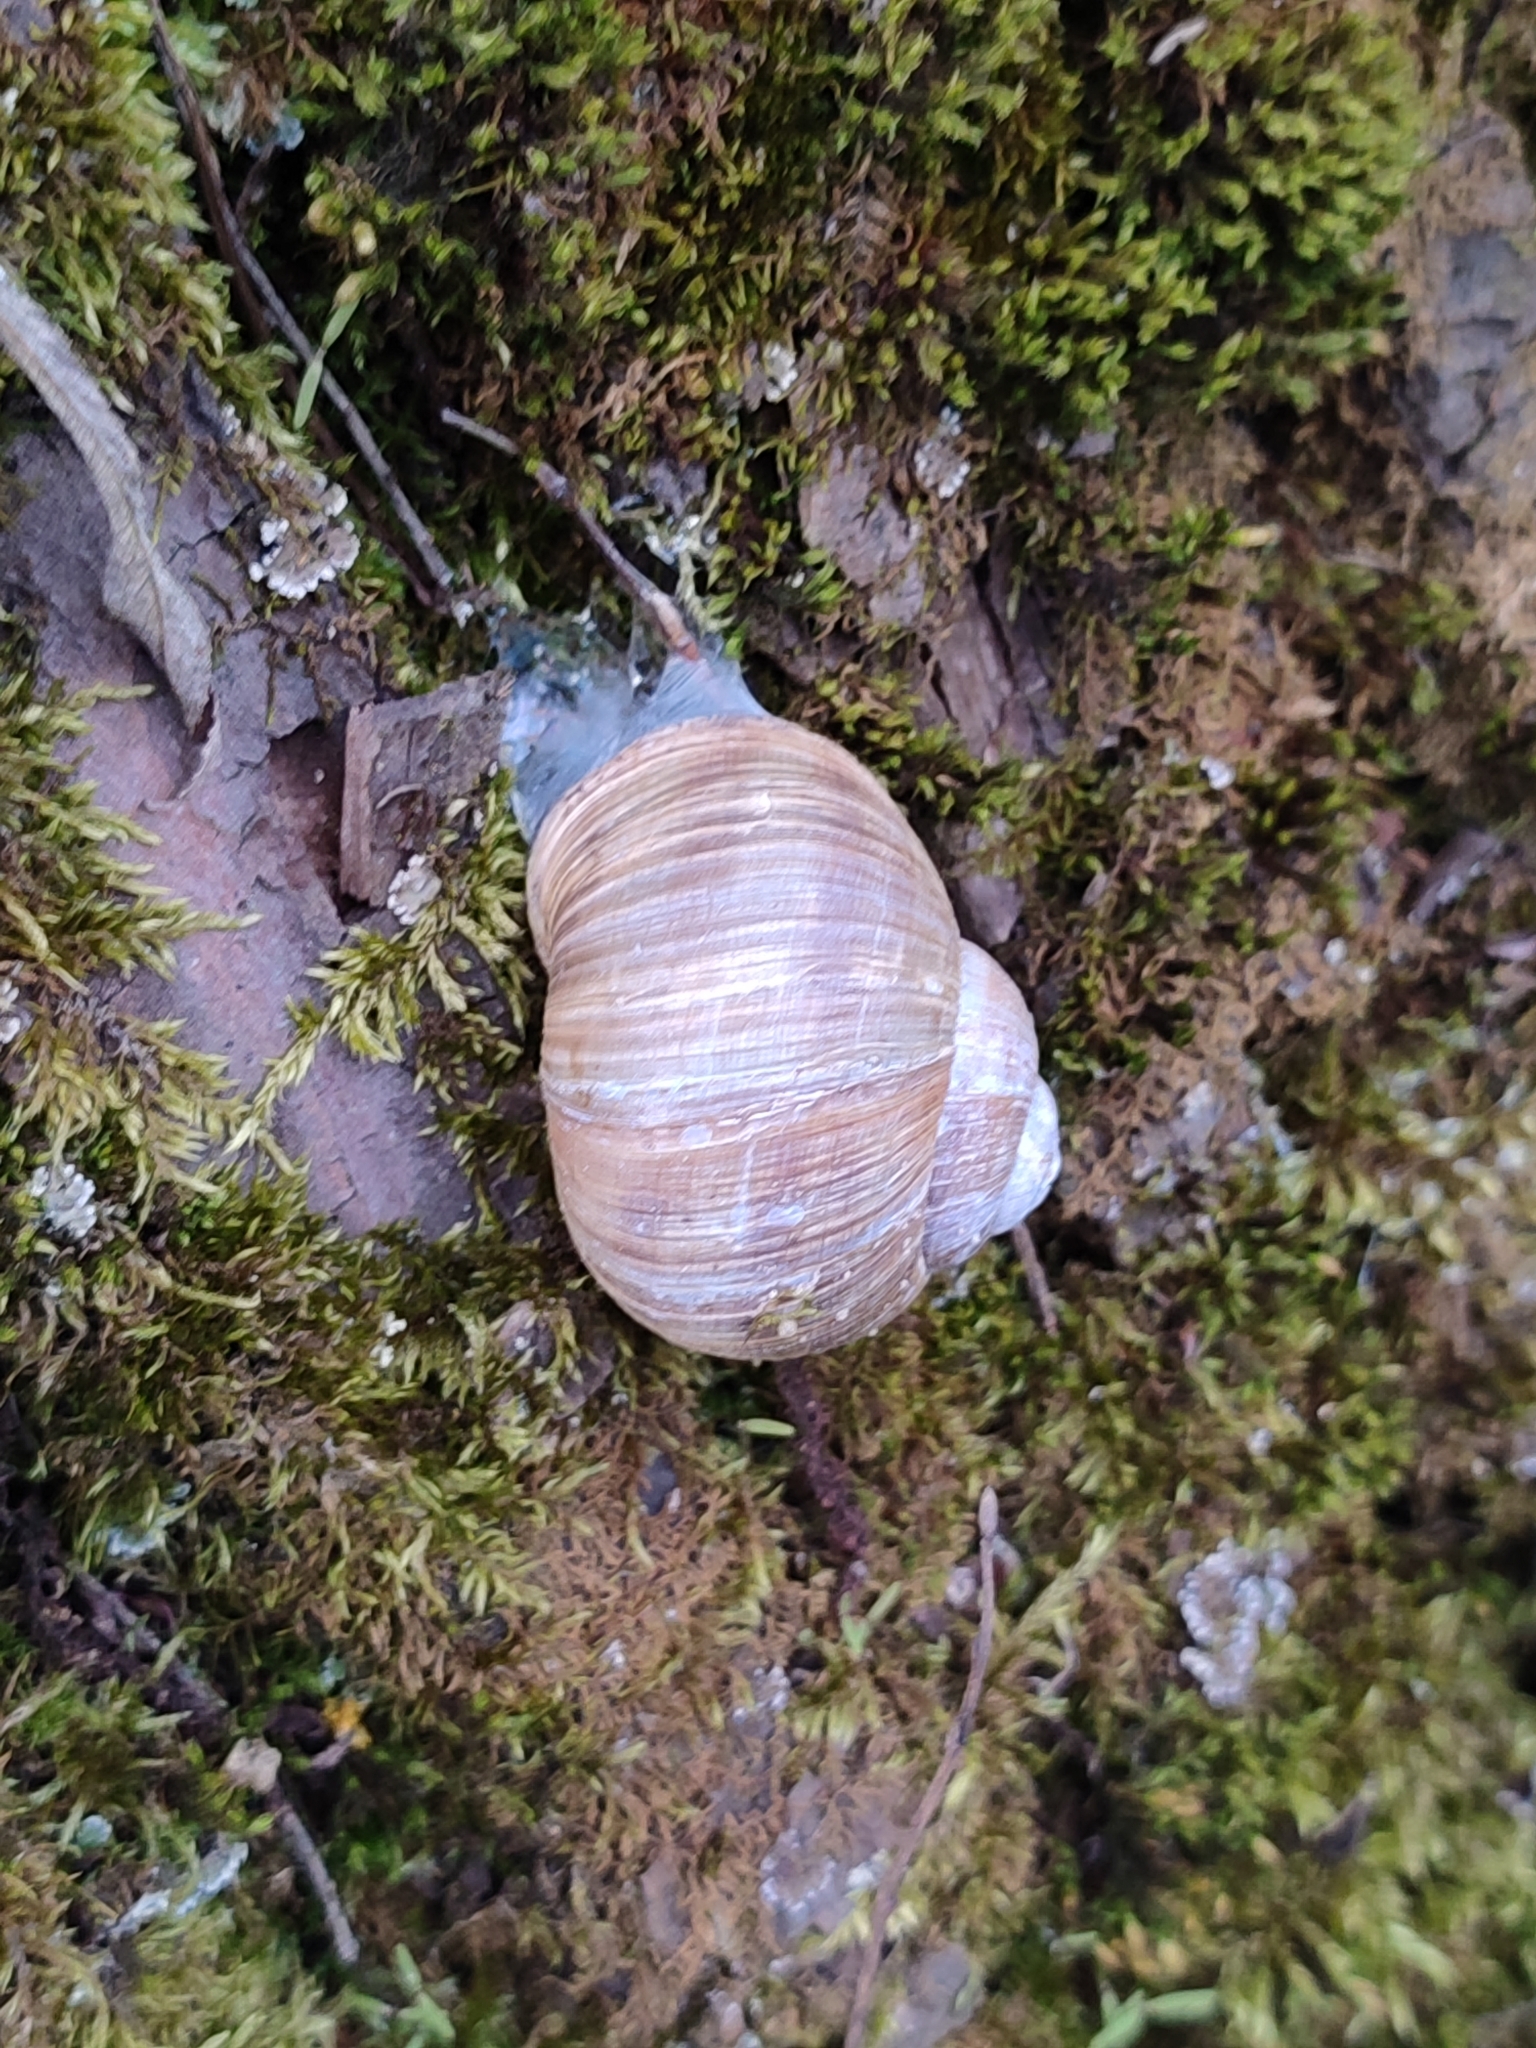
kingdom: Animalia
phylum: Mollusca
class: Gastropoda
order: Stylommatophora
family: Helicidae
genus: Helix
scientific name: Helix pomatia
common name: Roman snail
